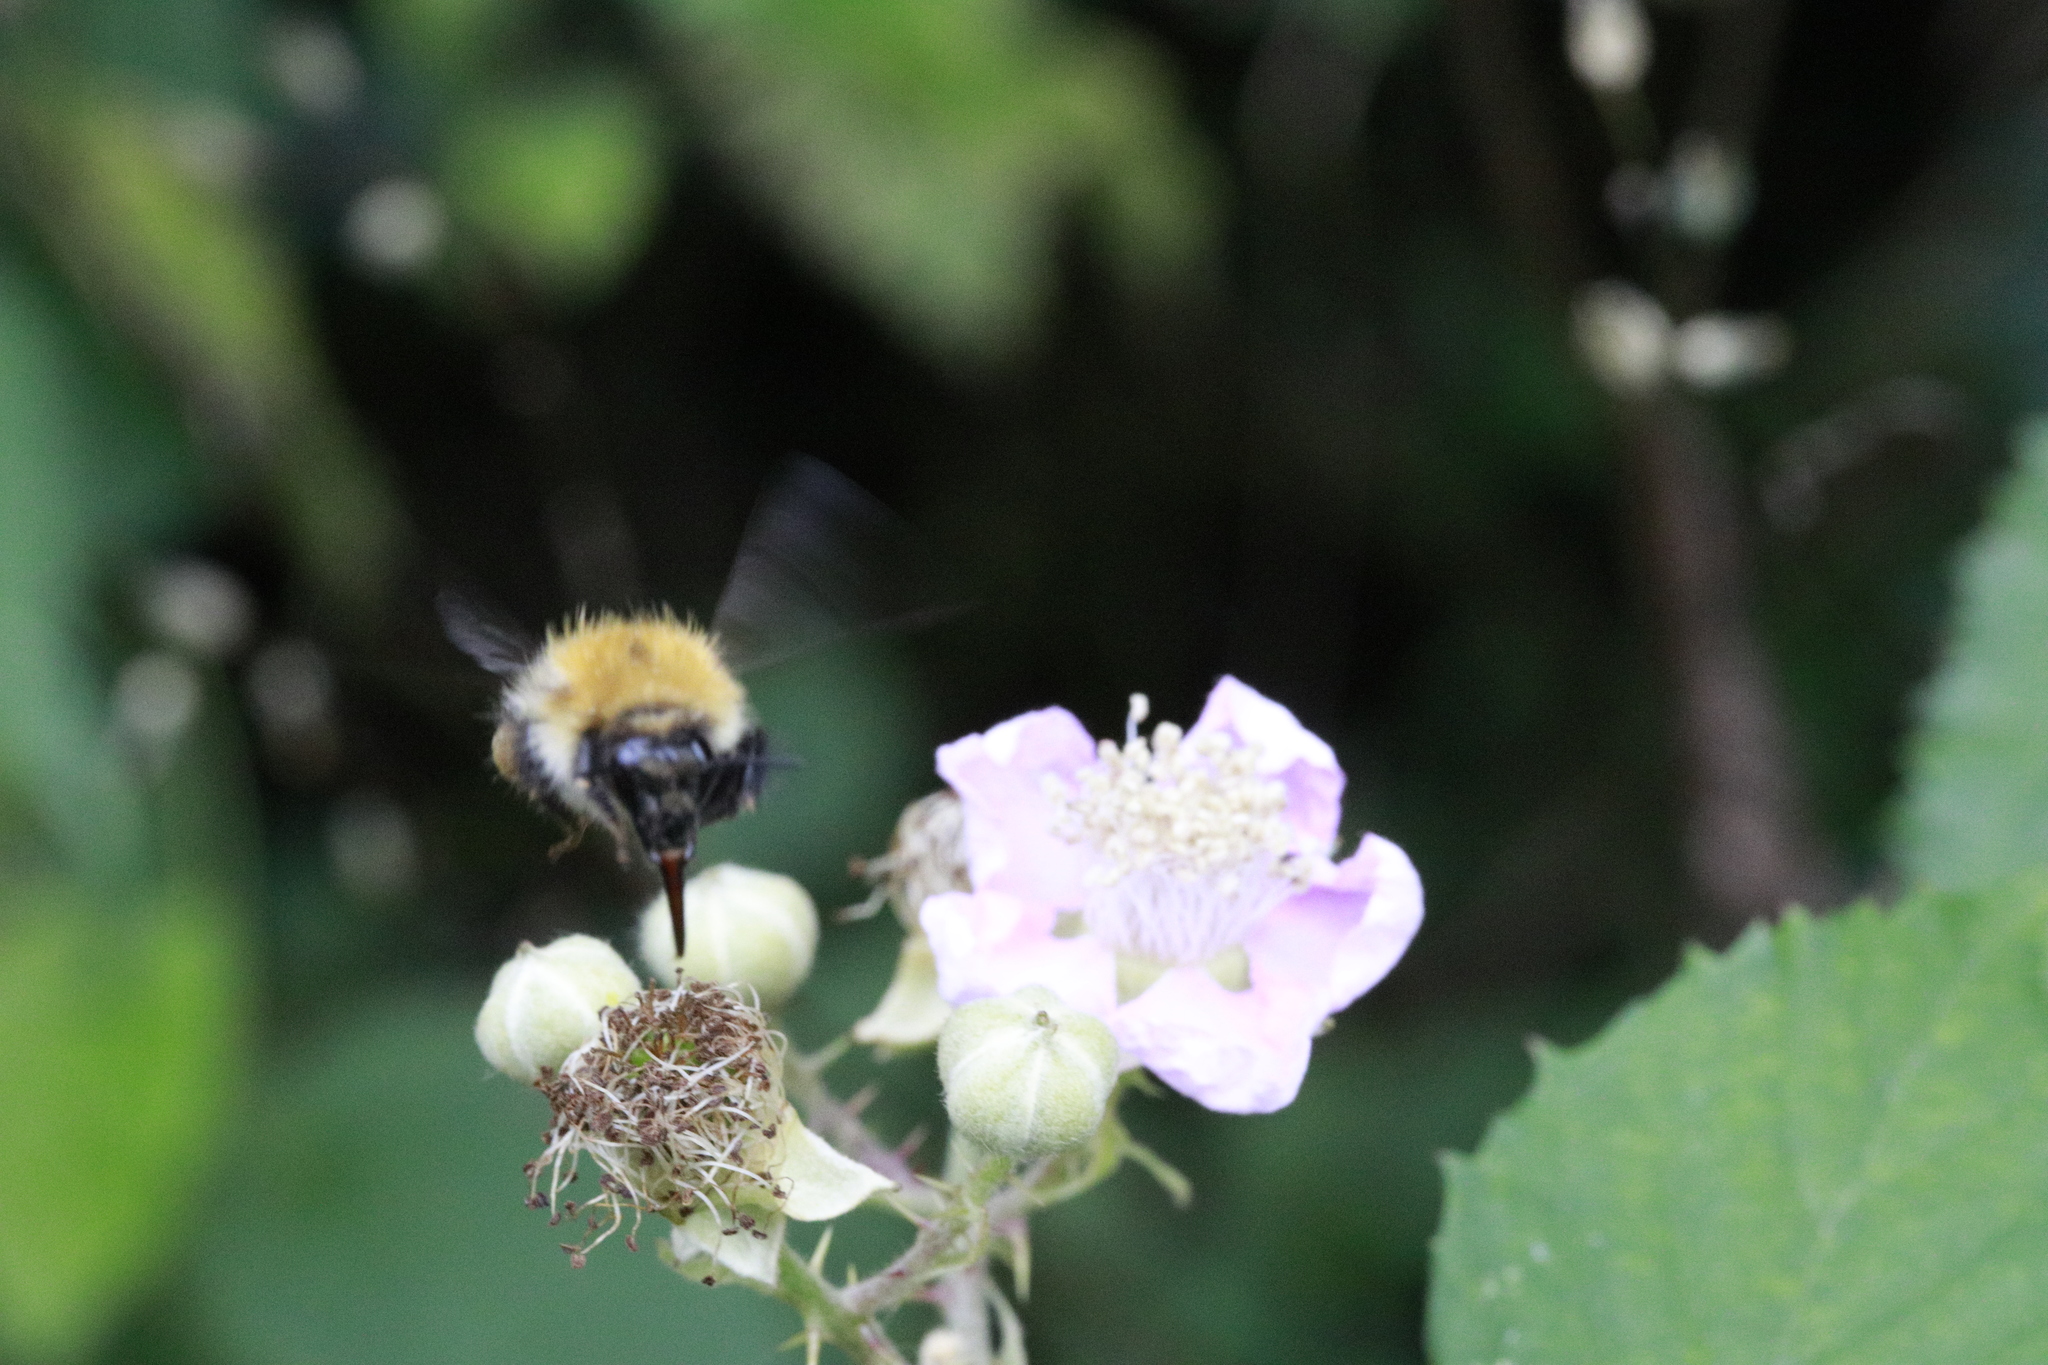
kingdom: Animalia
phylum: Arthropoda
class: Insecta
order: Hymenoptera
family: Apidae
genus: Bombus
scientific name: Bombus pascuorum
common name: Common carder bee
